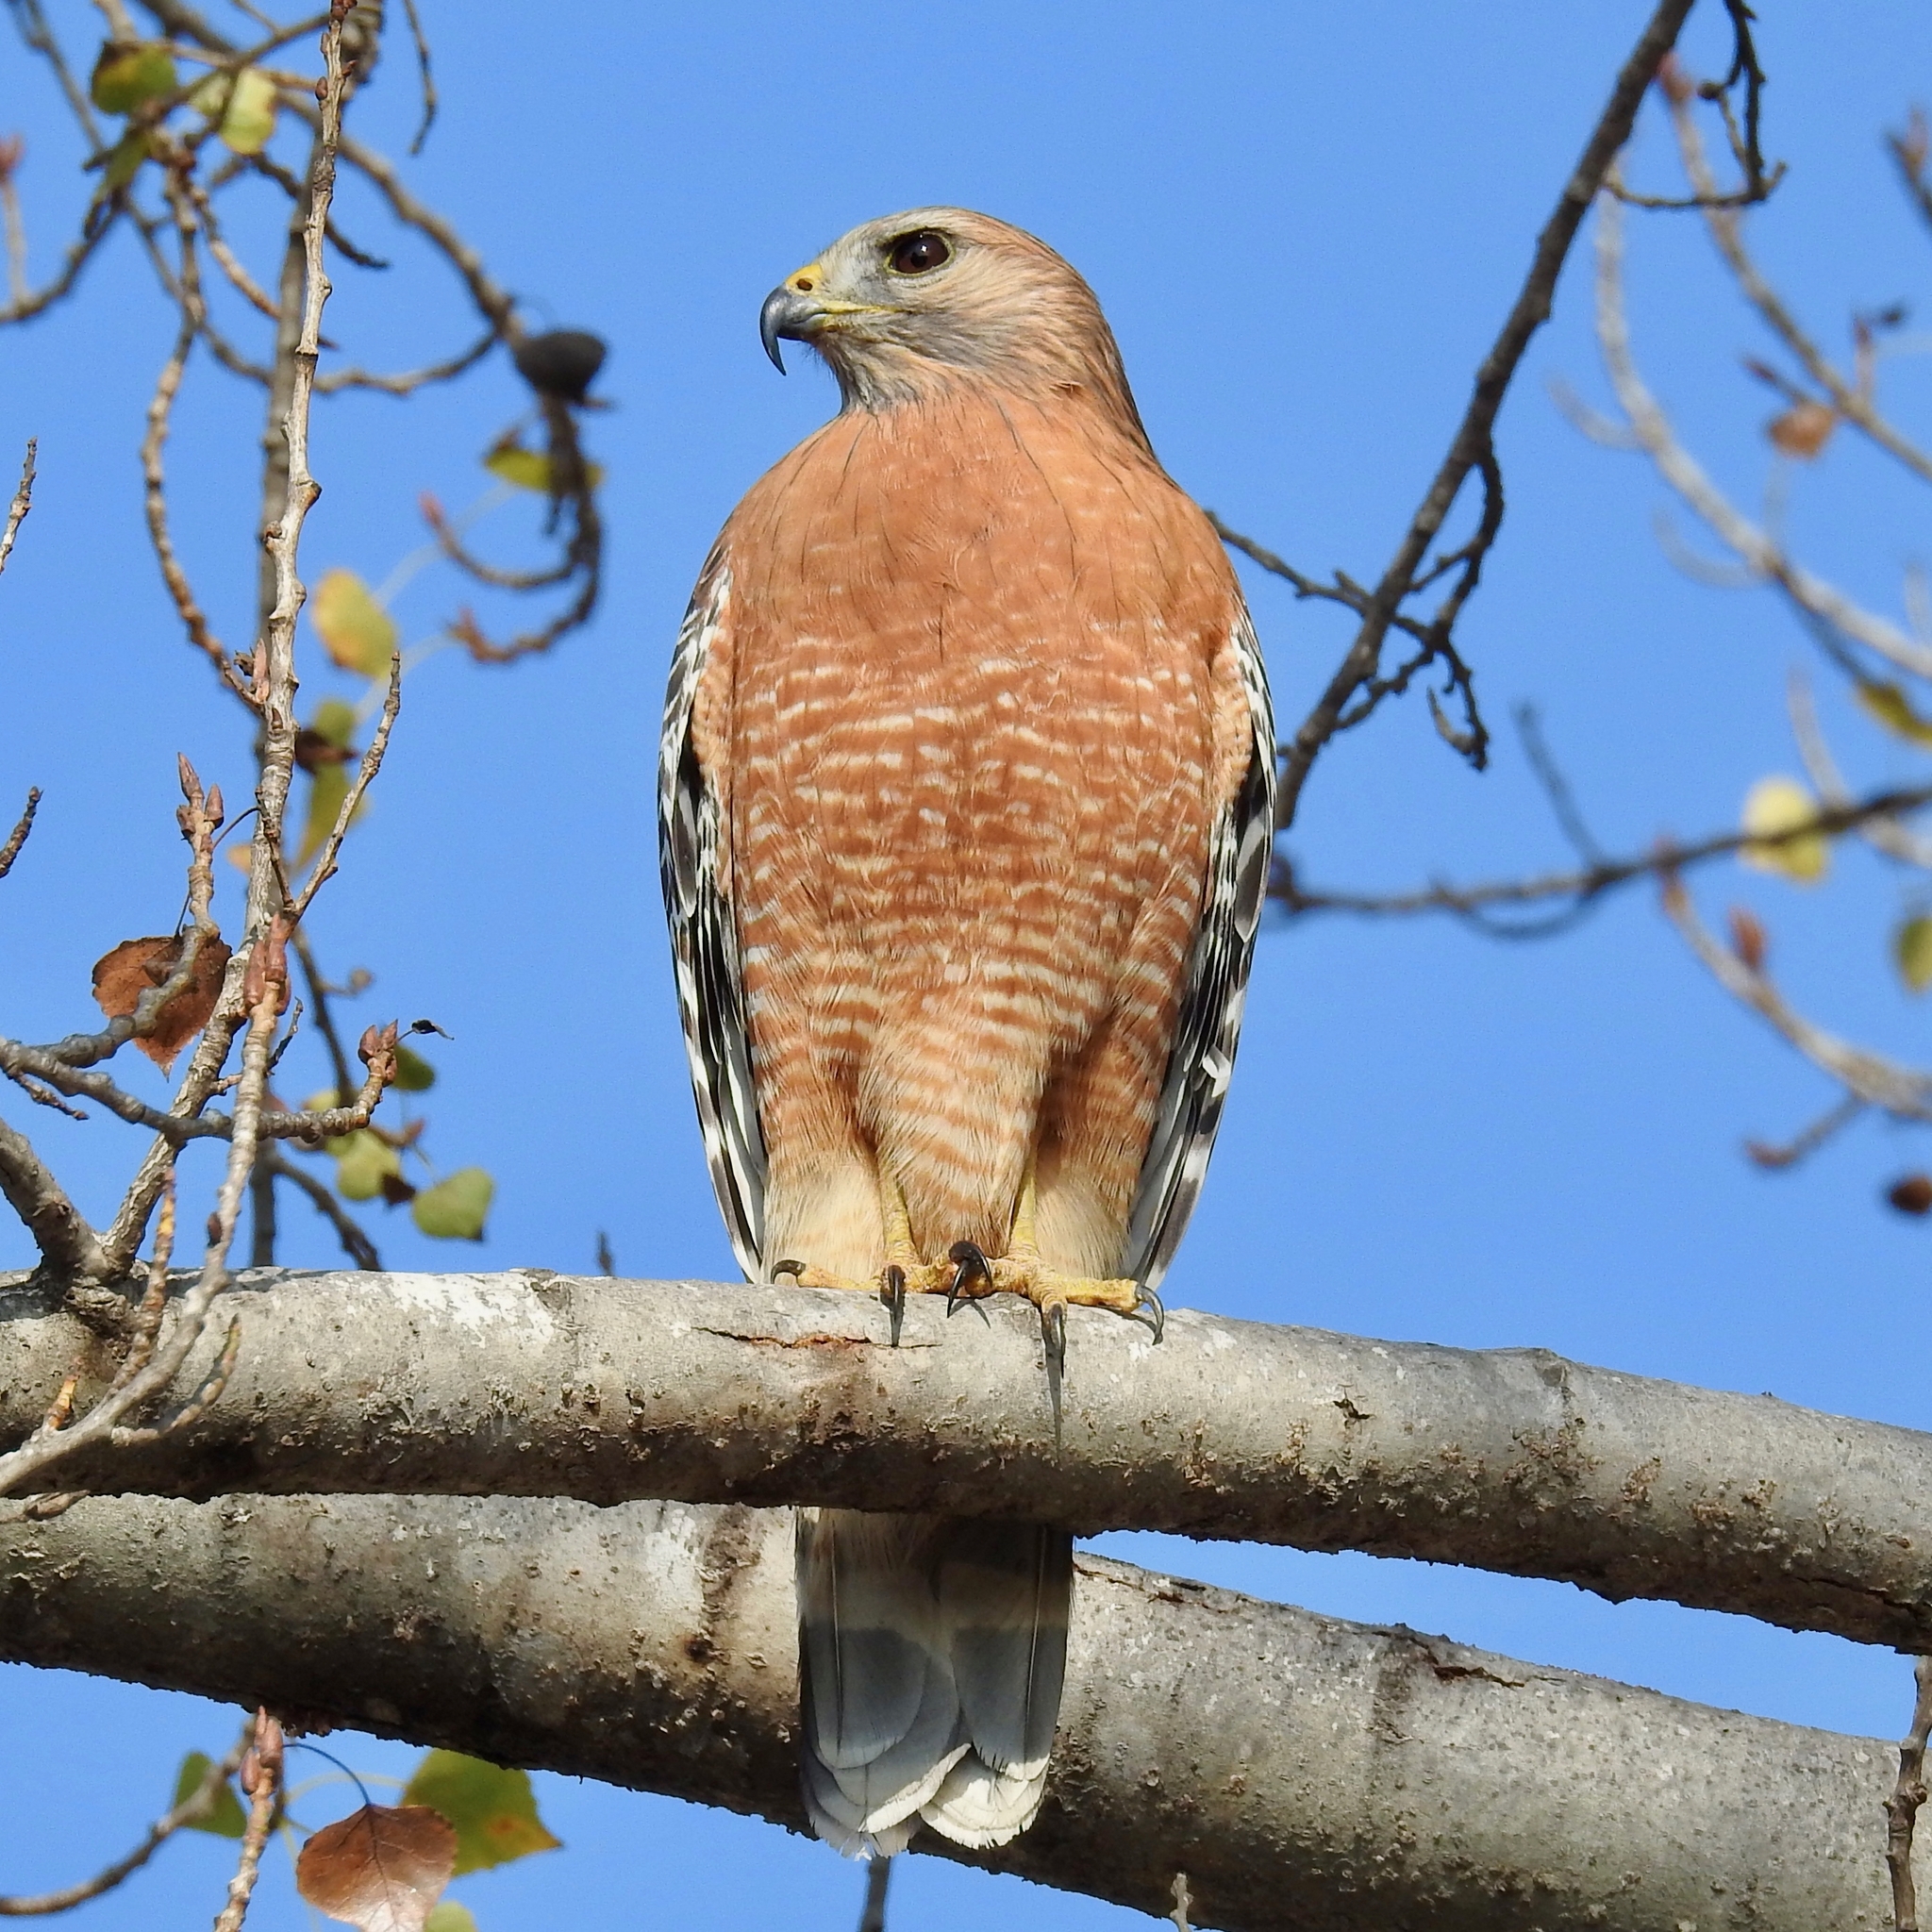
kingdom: Animalia
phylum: Chordata
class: Aves
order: Accipitriformes
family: Accipitridae
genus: Buteo
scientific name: Buteo lineatus
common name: Red-shouldered hawk
